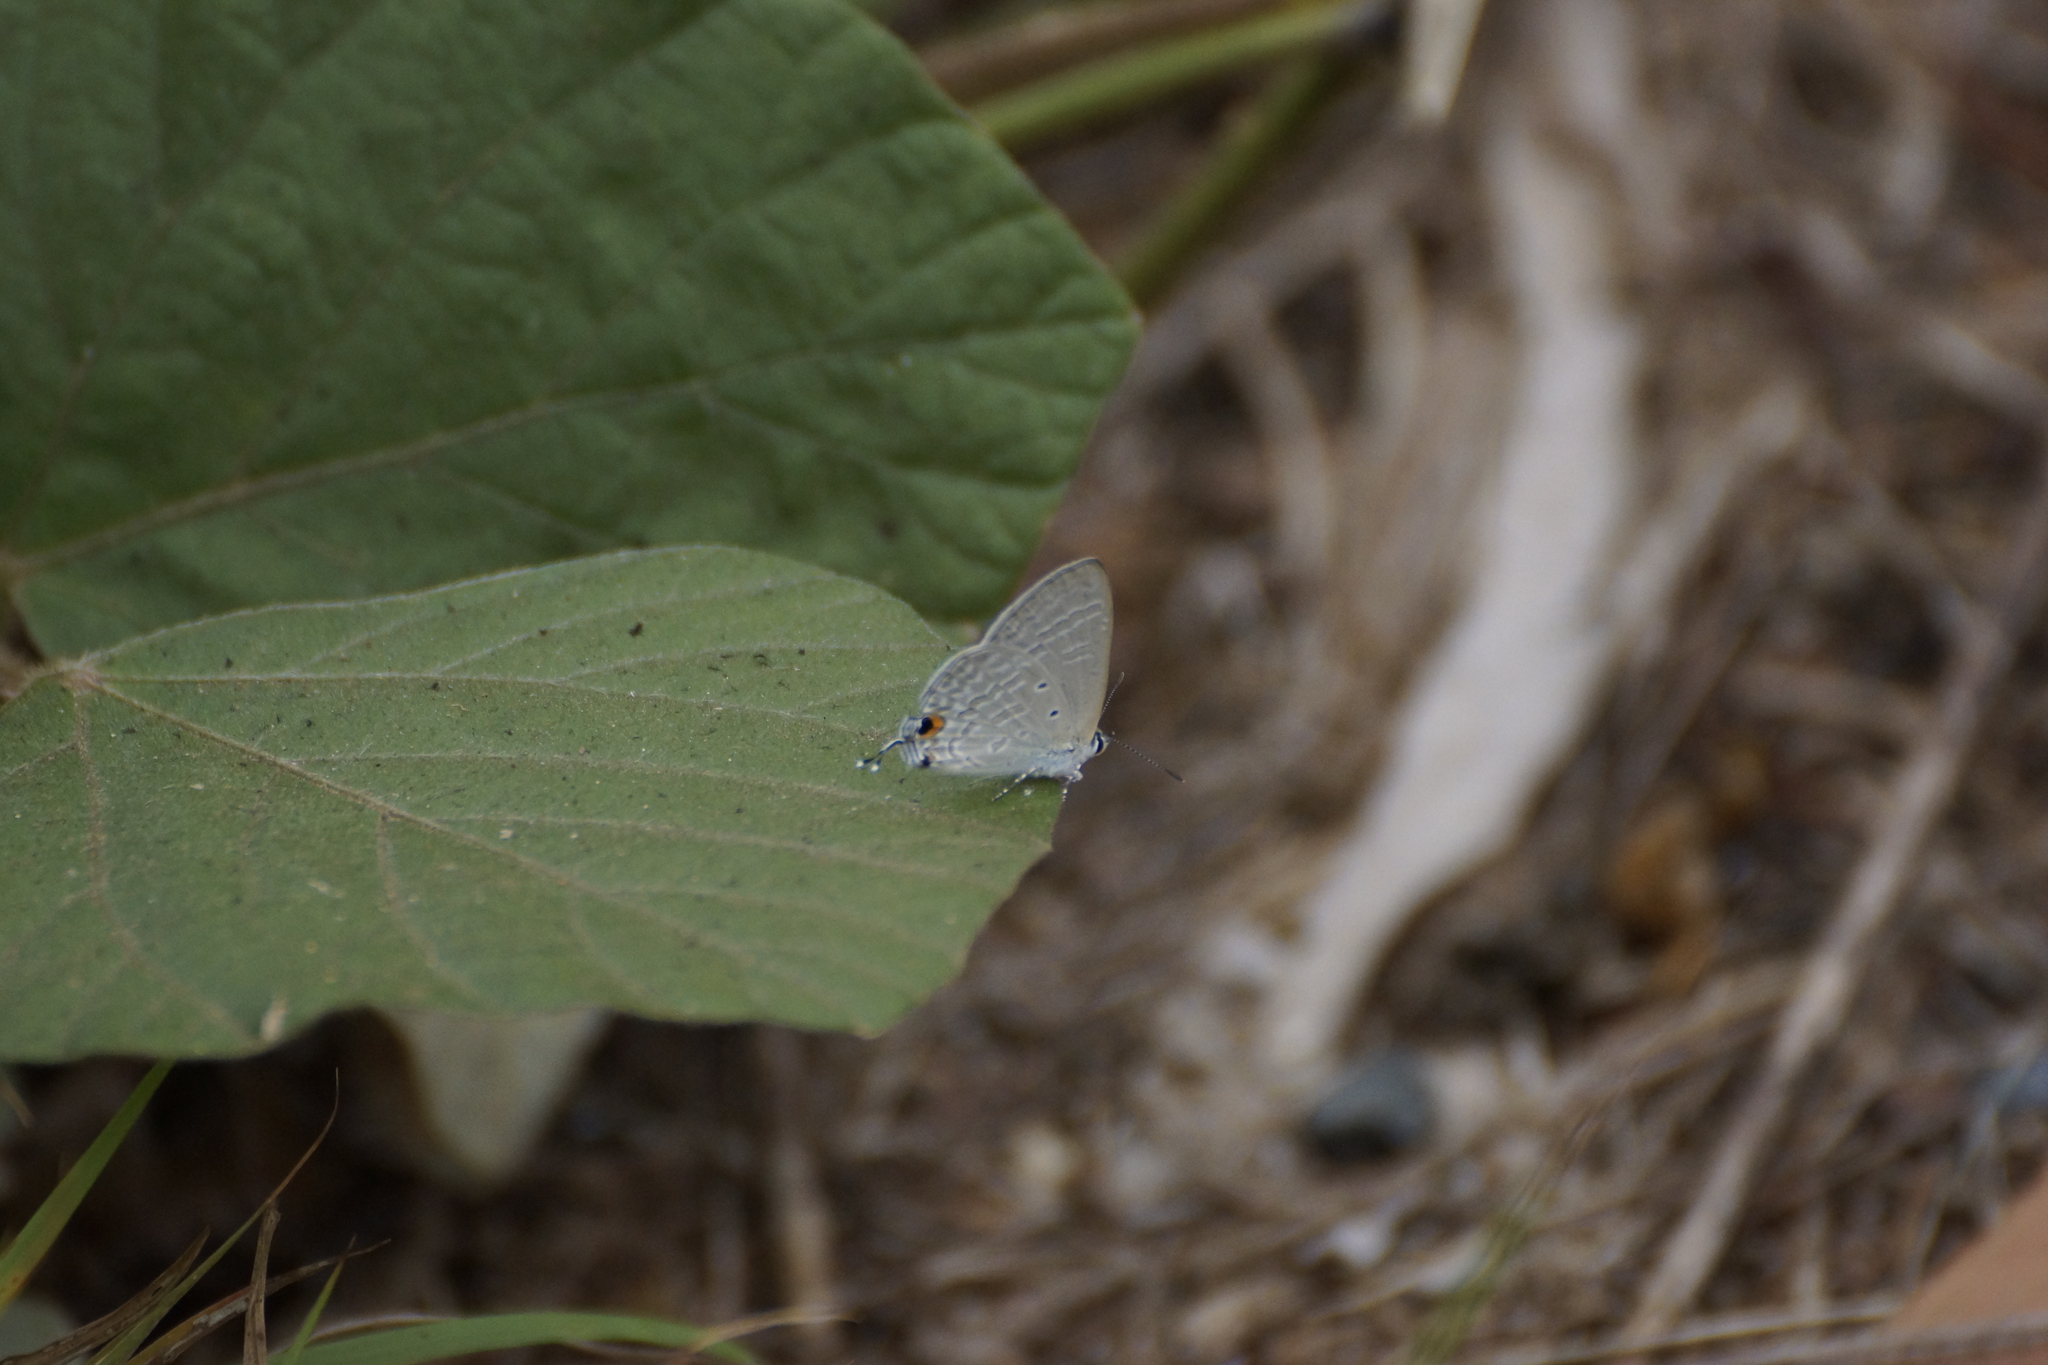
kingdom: Animalia
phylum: Arthropoda
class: Insecta
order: Lepidoptera
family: Lycaenidae
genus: Catochrysops
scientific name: Catochrysops panormus
